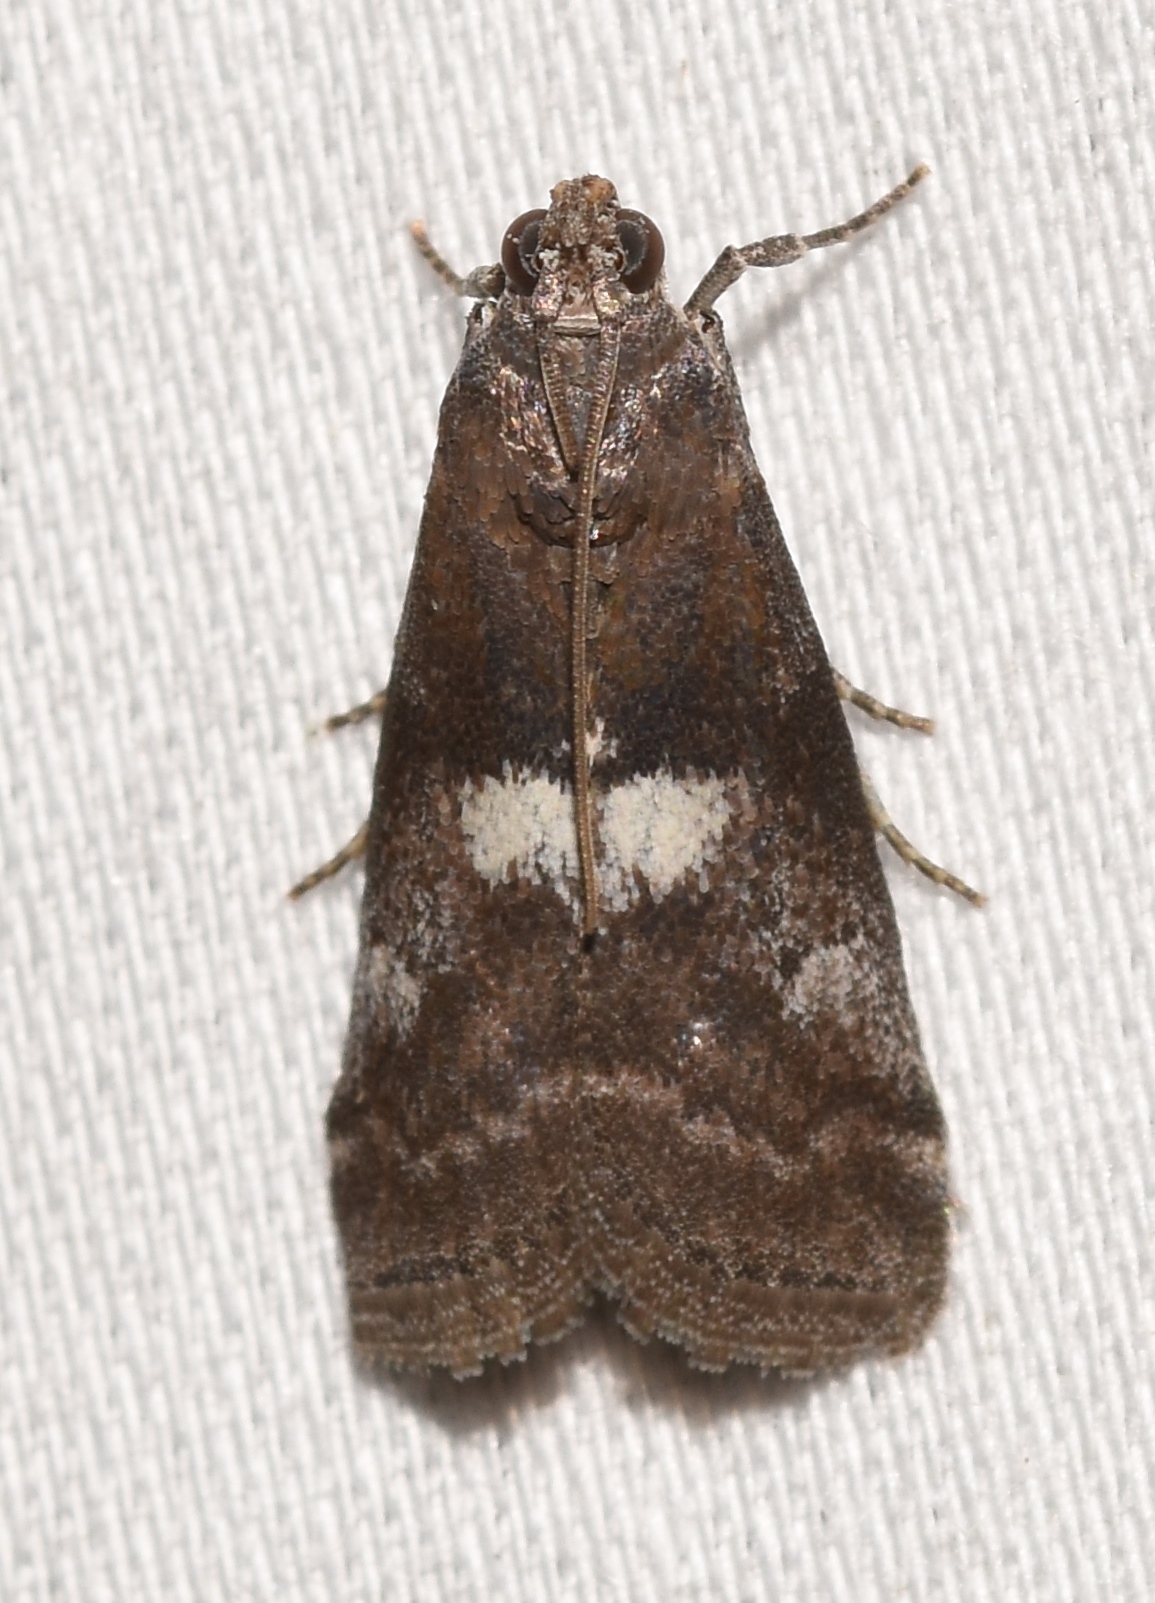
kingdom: Animalia
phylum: Arthropoda
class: Insecta
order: Lepidoptera
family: Pyralidae
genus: Salebriaria
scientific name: Salebriaria engeli
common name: Engel's salebriaria moth
